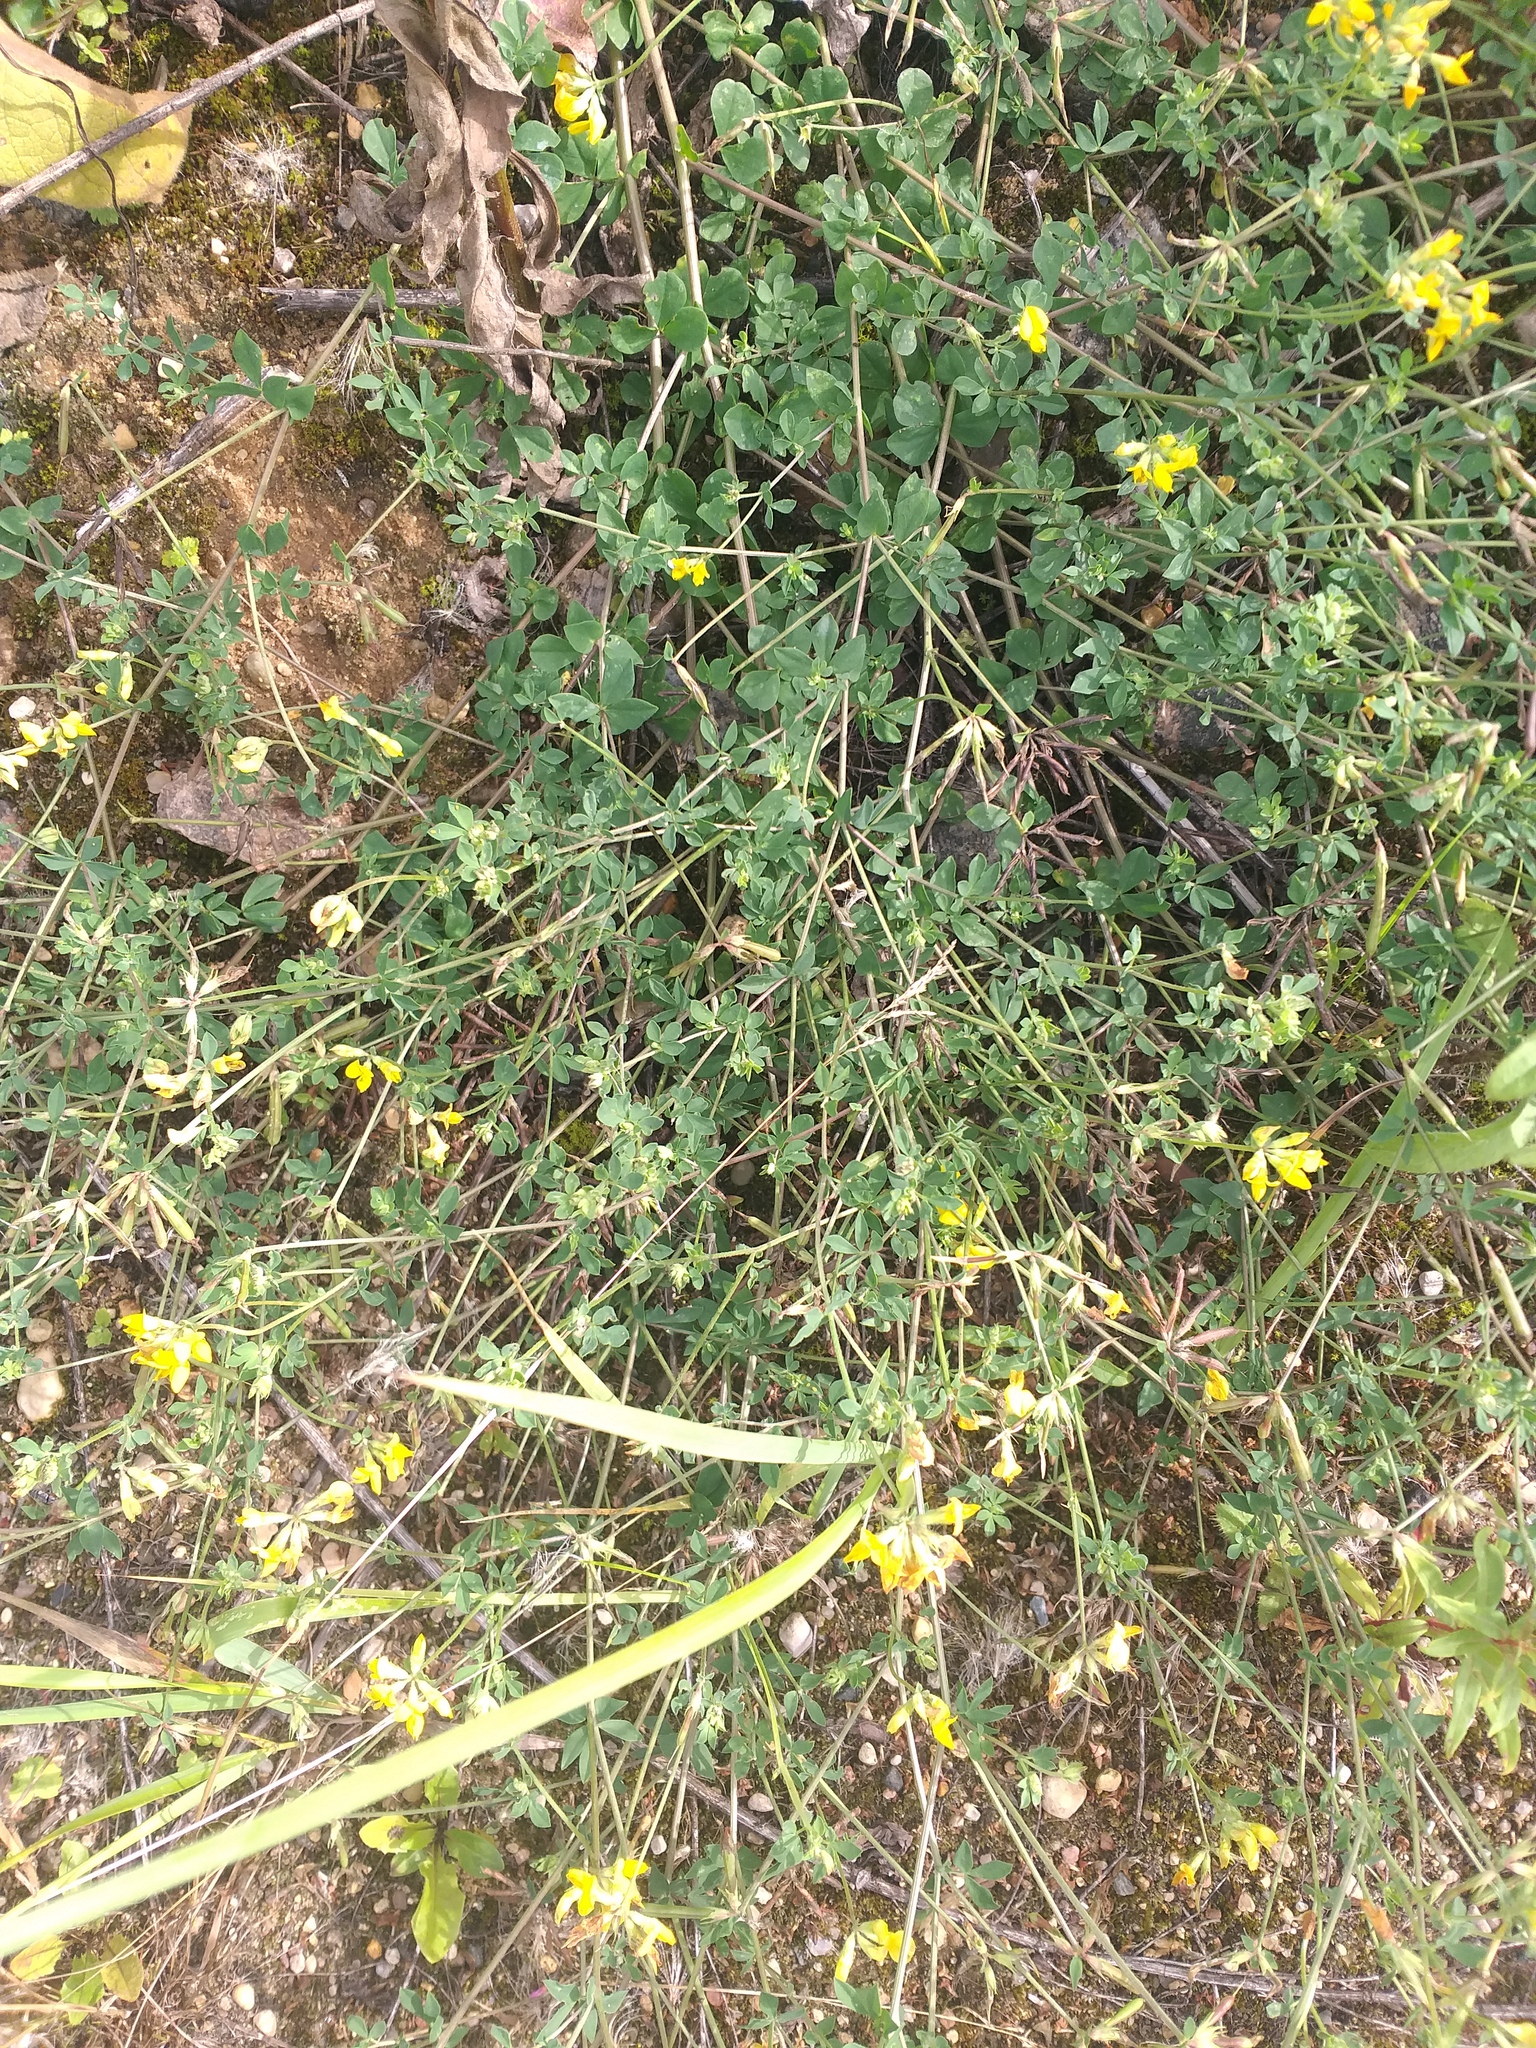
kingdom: Plantae
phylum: Tracheophyta
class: Magnoliopsida
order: Fabales
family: Fabaceae
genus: Lotus
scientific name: Lotus corniculatus
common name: Common bird's-foot-trefoil
